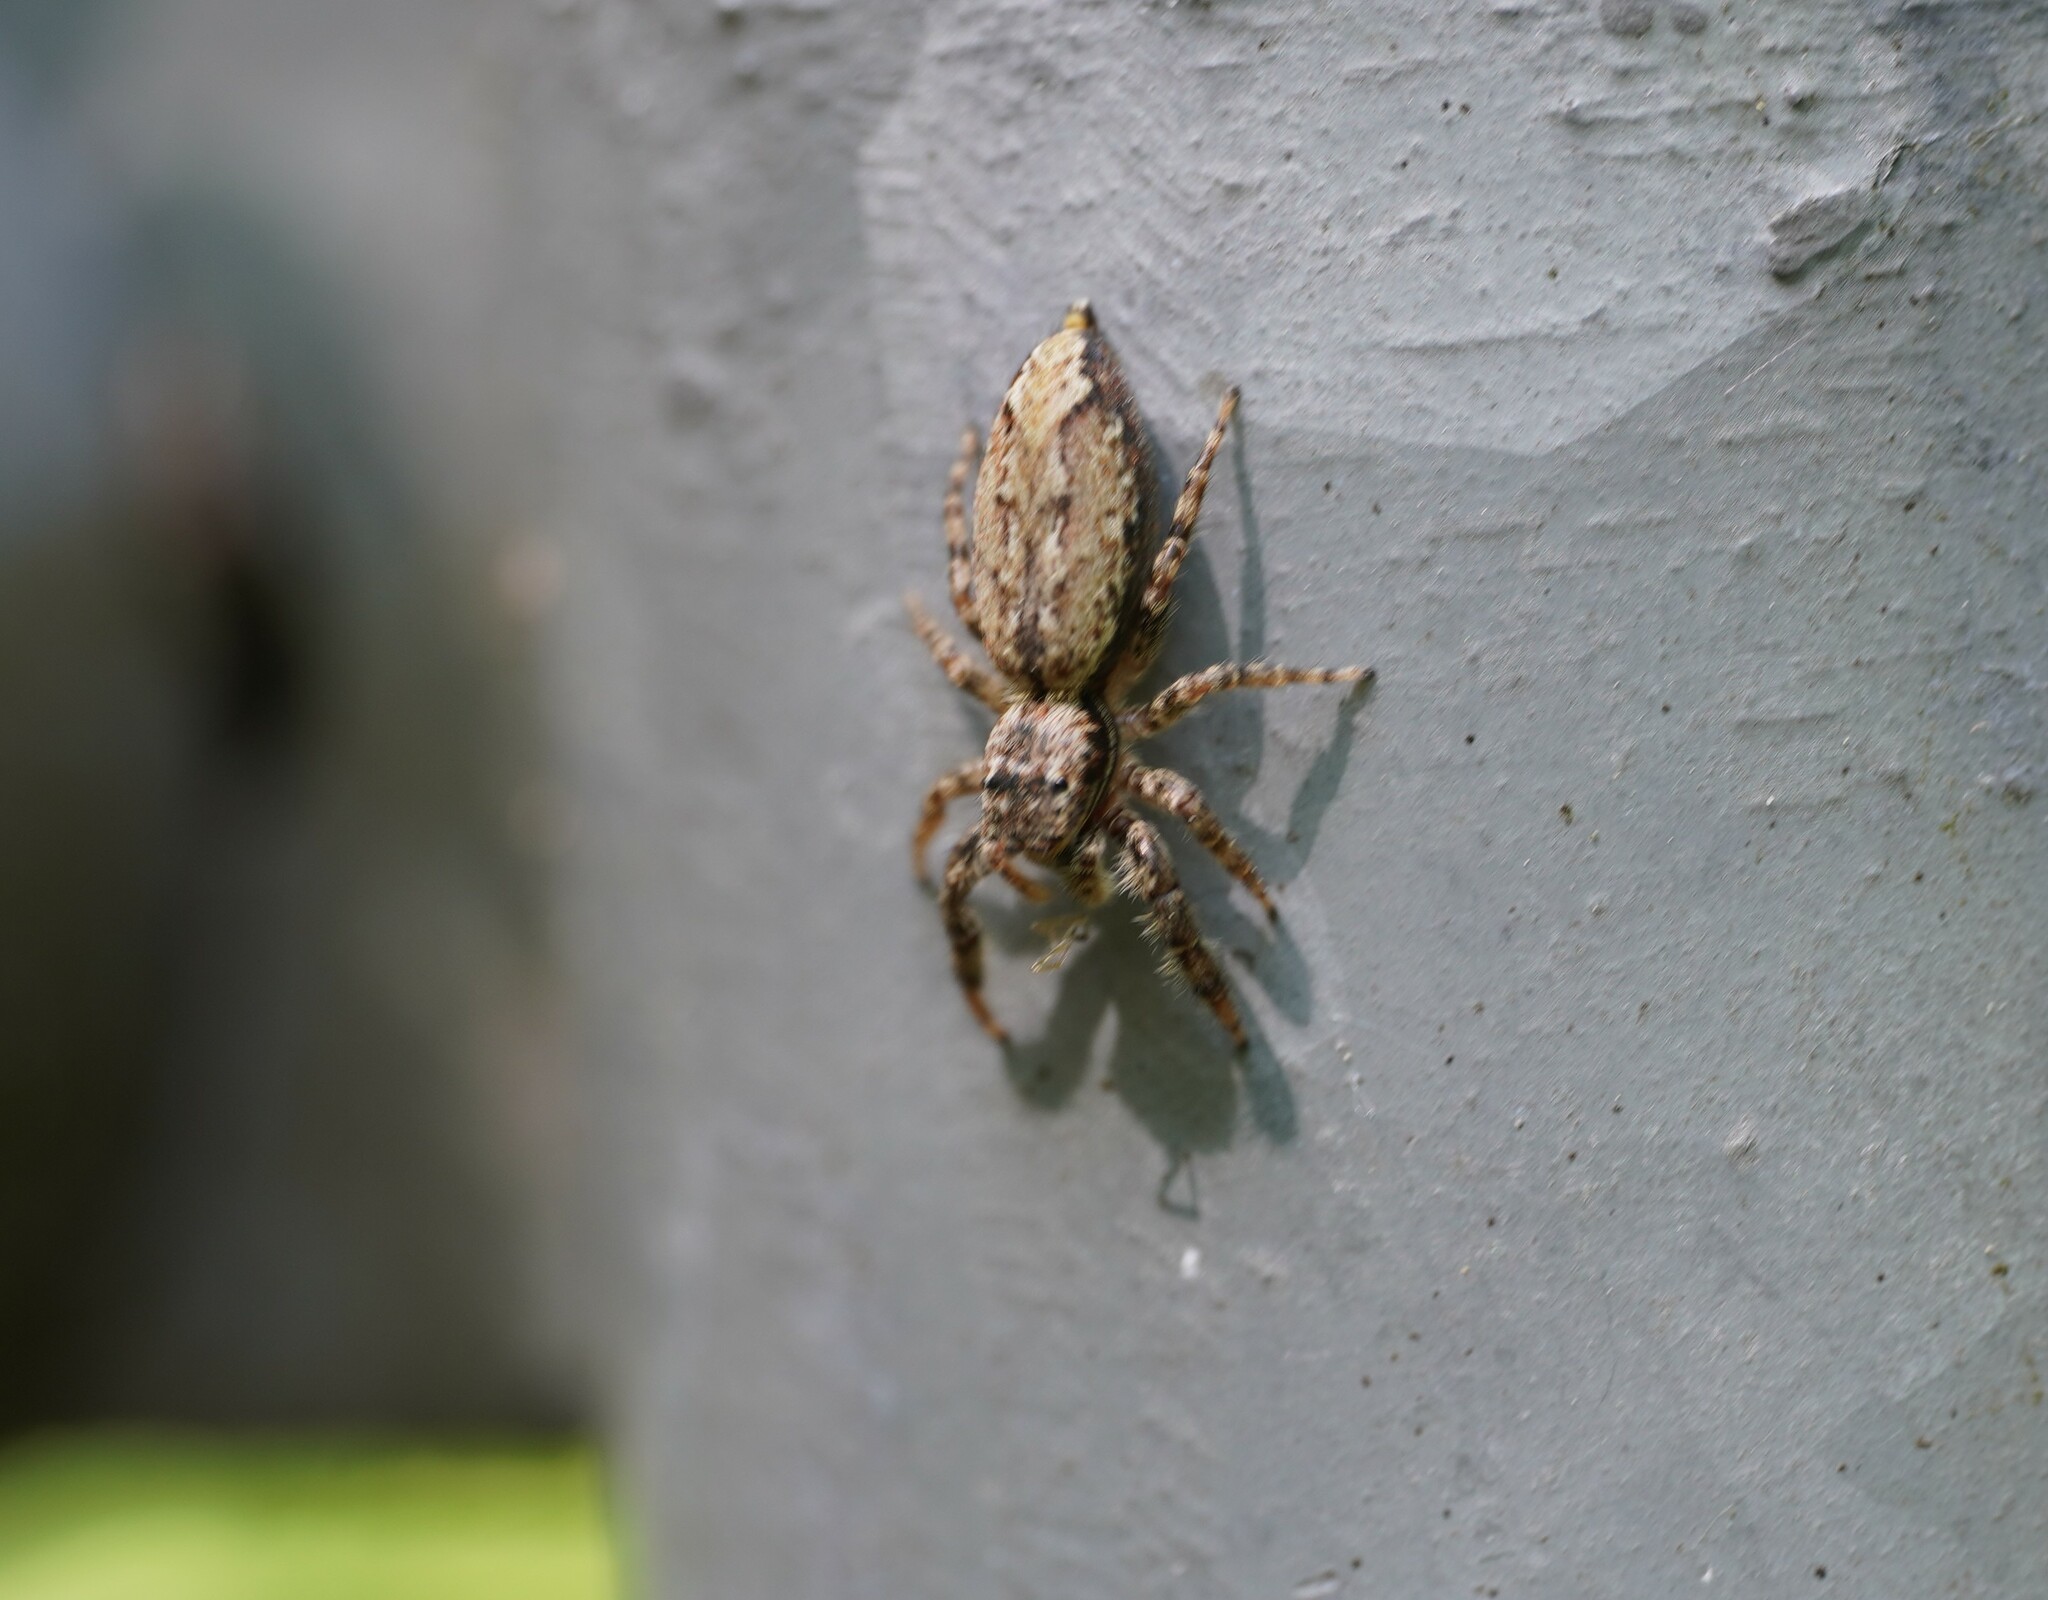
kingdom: Animalia
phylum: Arthropoda
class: Arachnida
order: Araneae
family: Salticidae
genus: Marpissa
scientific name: Marpissa muscosa
